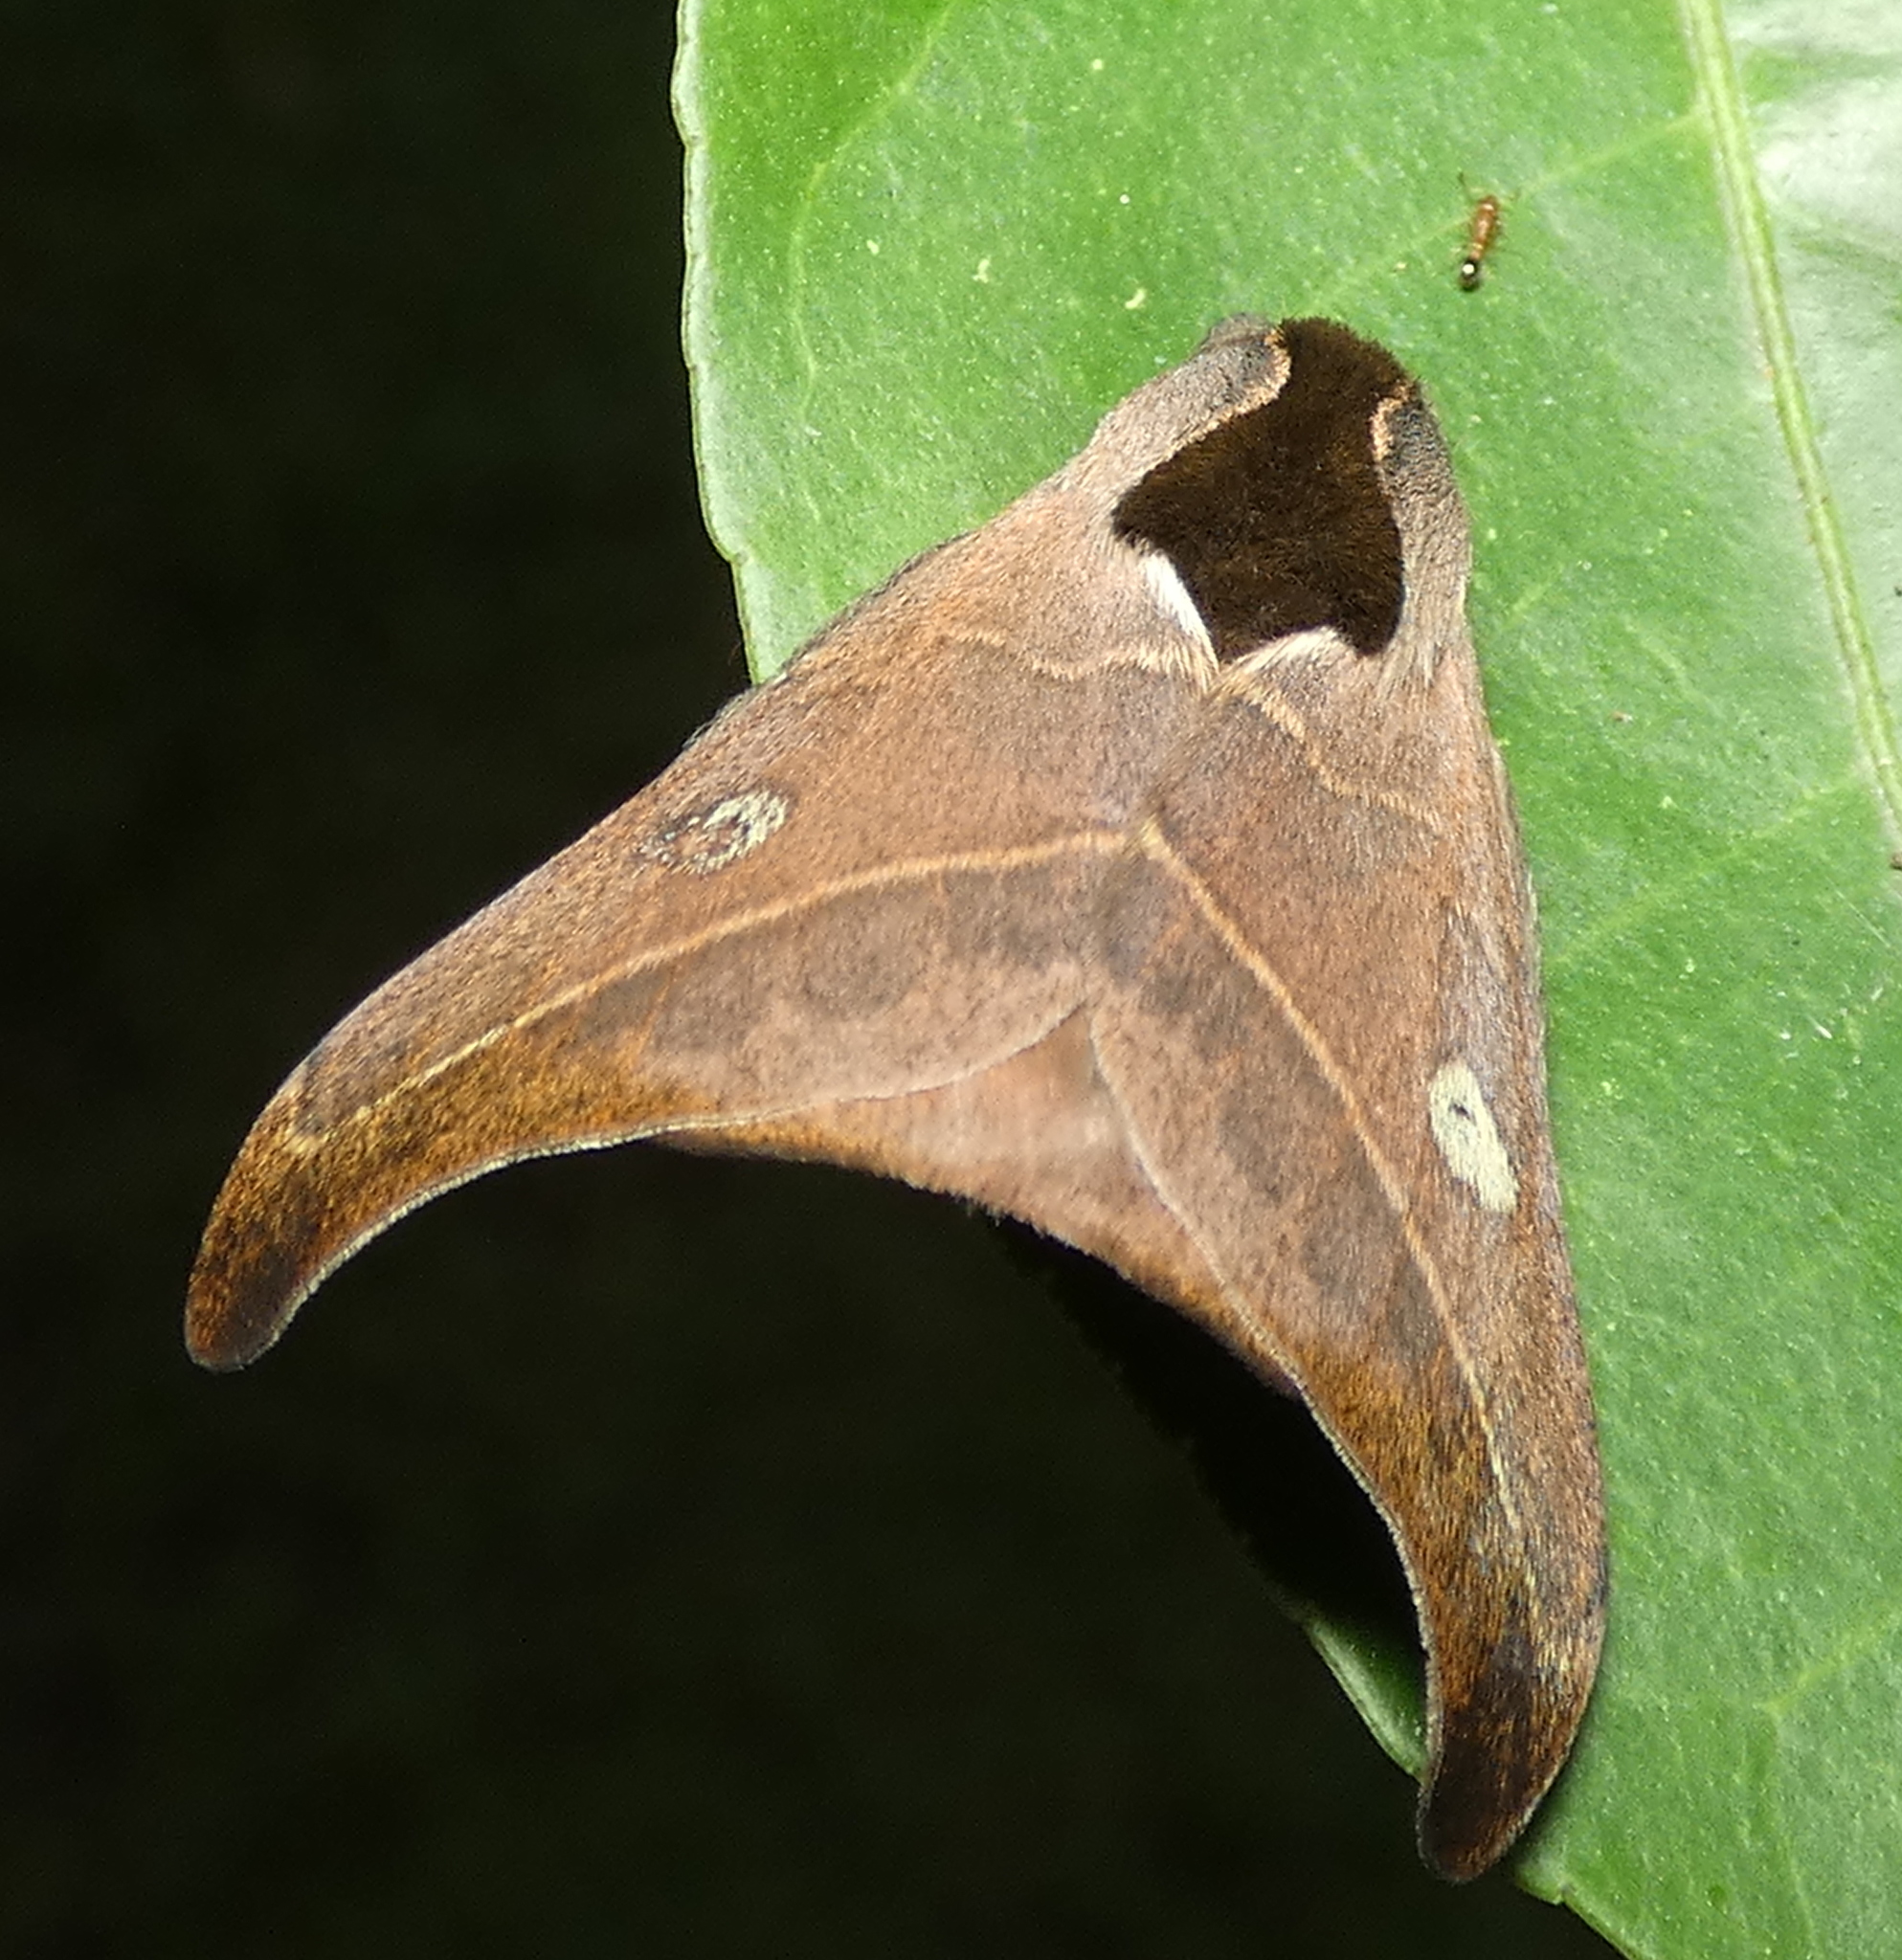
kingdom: Animalia
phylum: Arthropoda
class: Insecta
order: Lepidoptera
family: Saturniidae
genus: Hylesia
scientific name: Hylesia nanus
